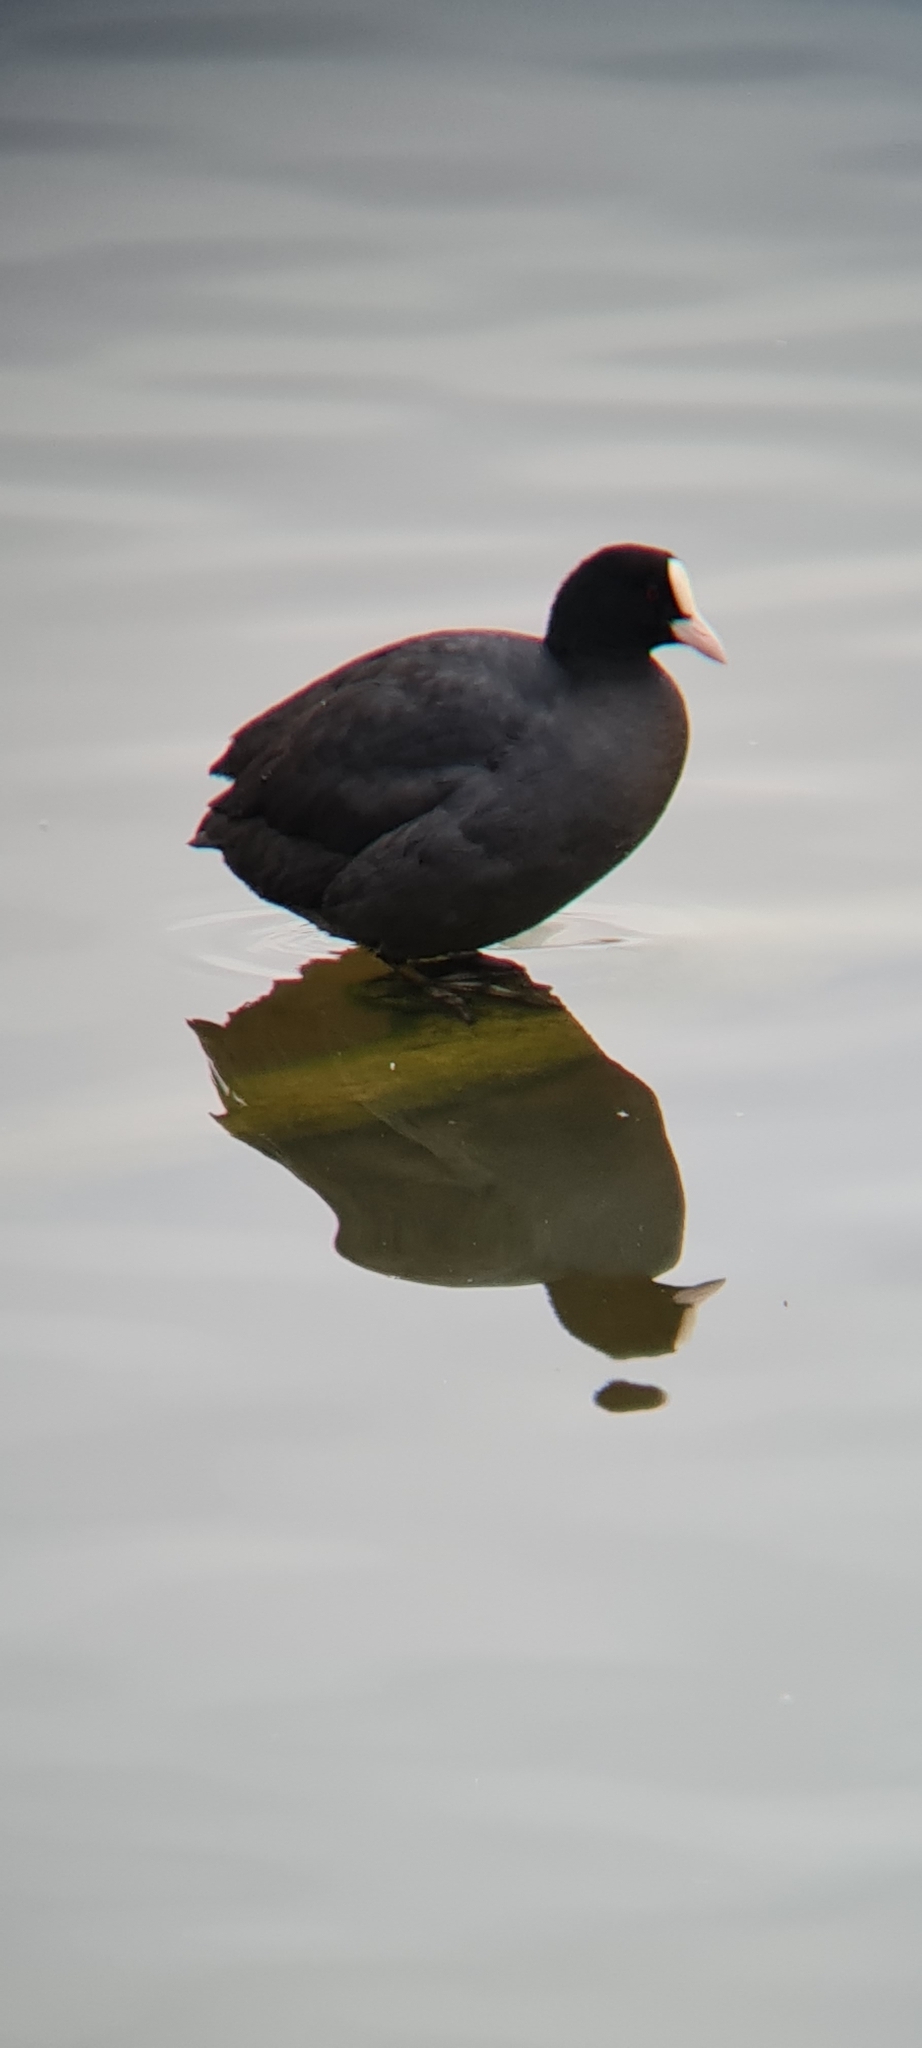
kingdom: Animalia
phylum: Chordata
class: Aves
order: Gruiformes
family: Rallidae
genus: Fulica
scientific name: Fulica atra
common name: Eurasian coot
